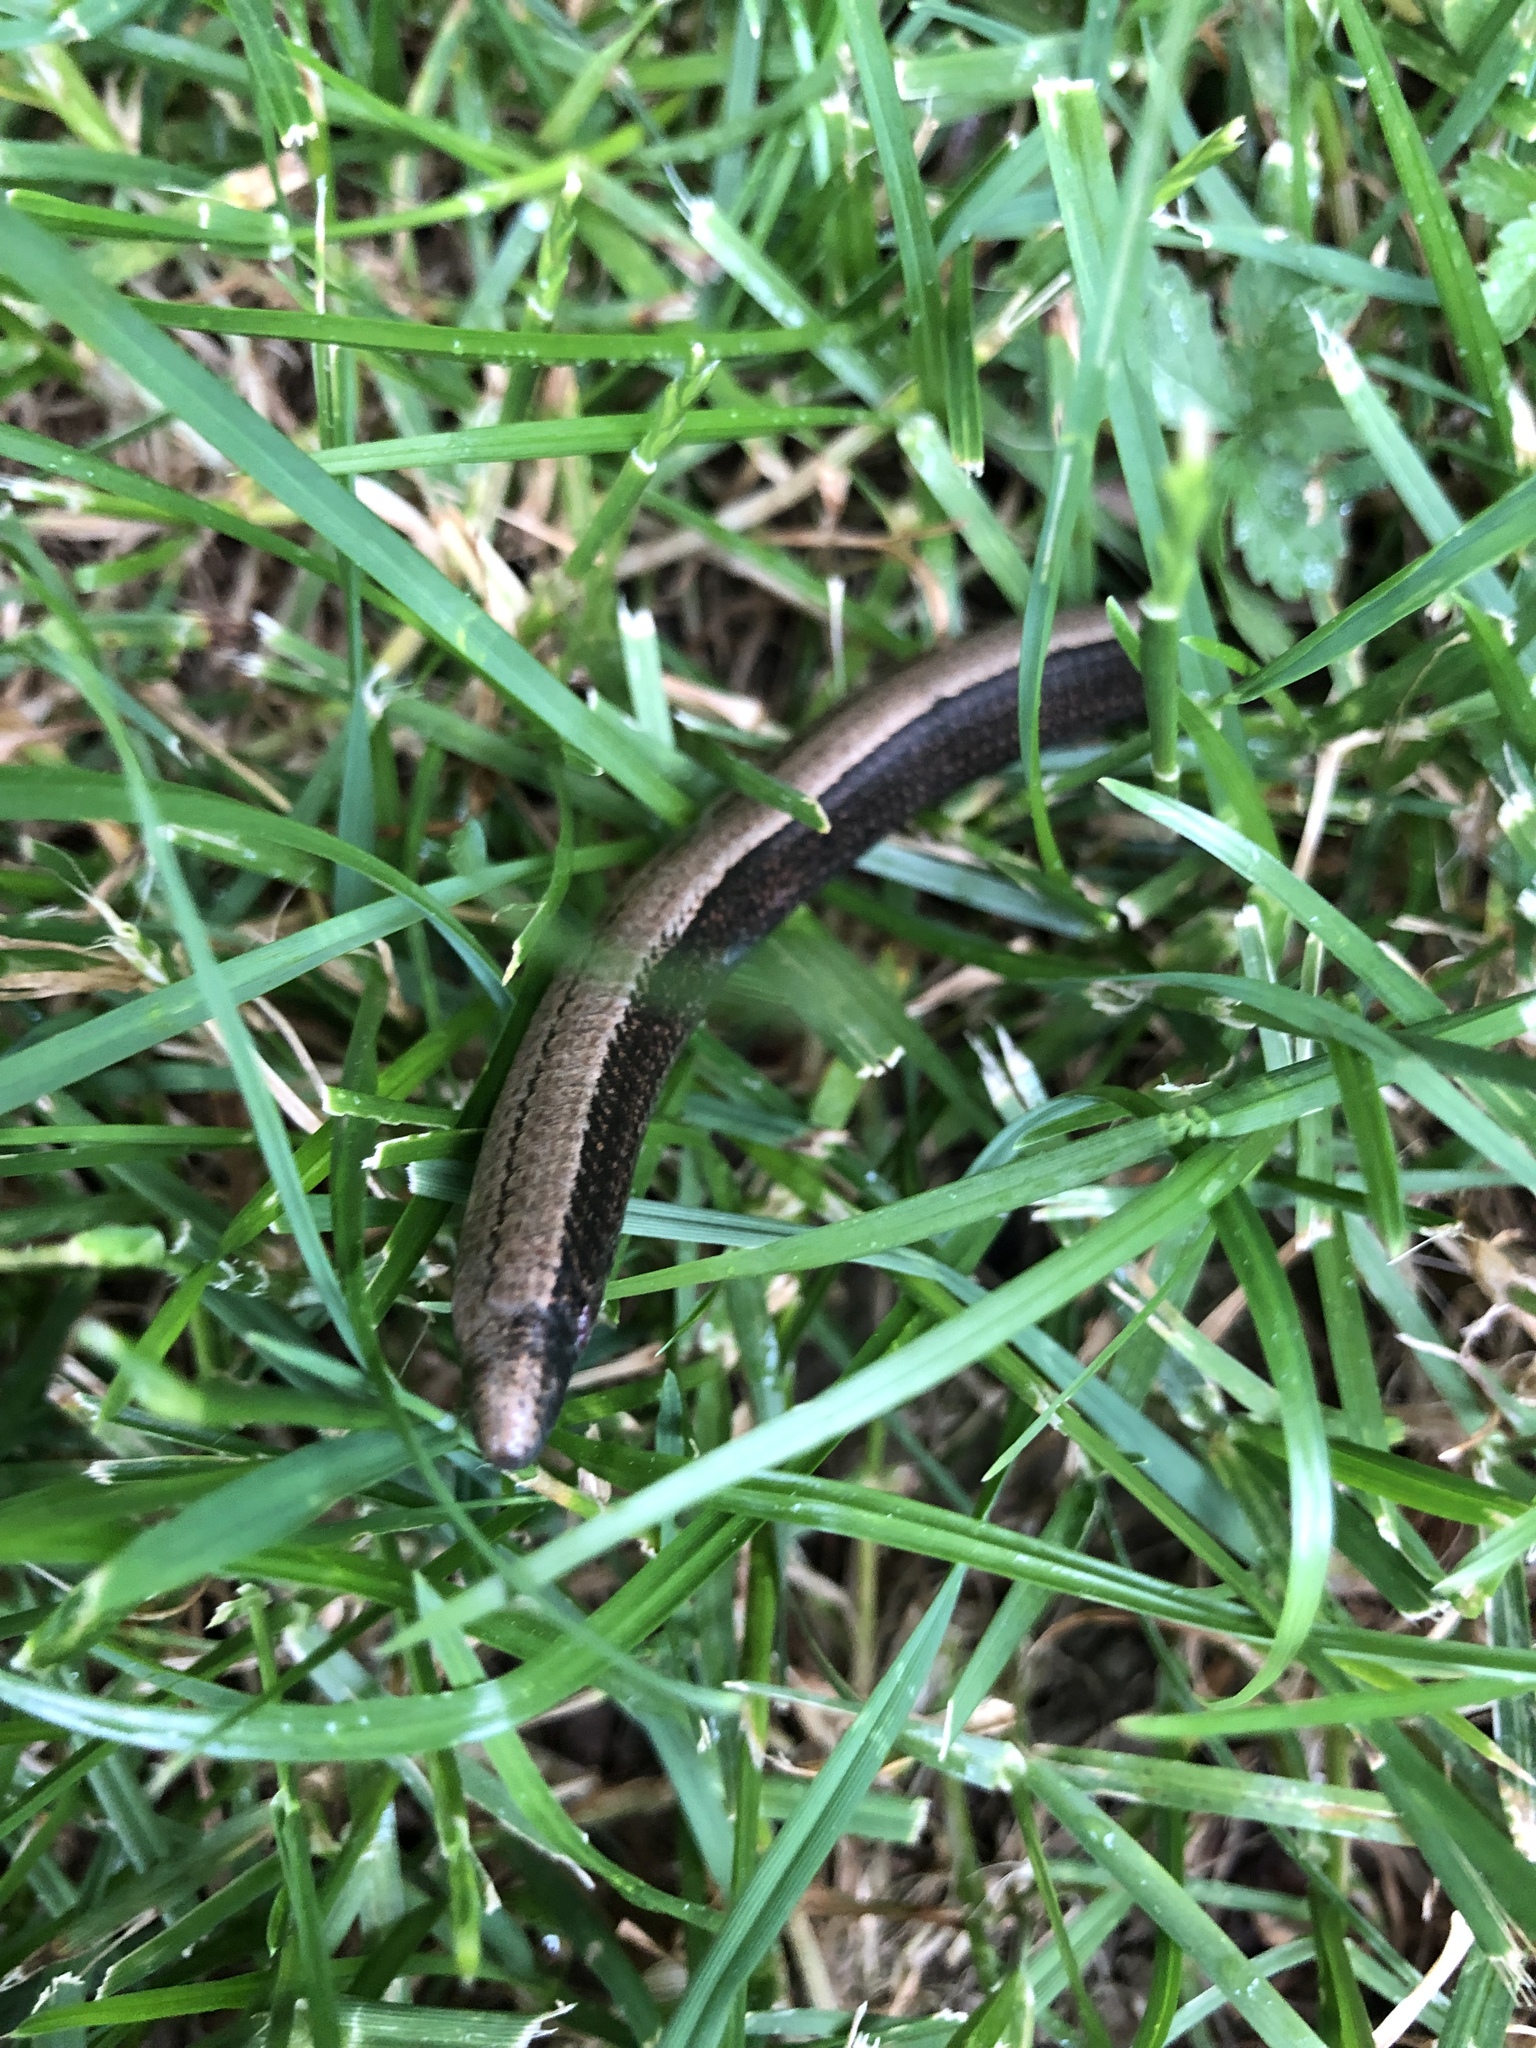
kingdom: Animalia
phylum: Chordata
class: Squamata
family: Anguidae
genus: Anguis
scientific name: Anguis fragilis
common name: Slow worm
